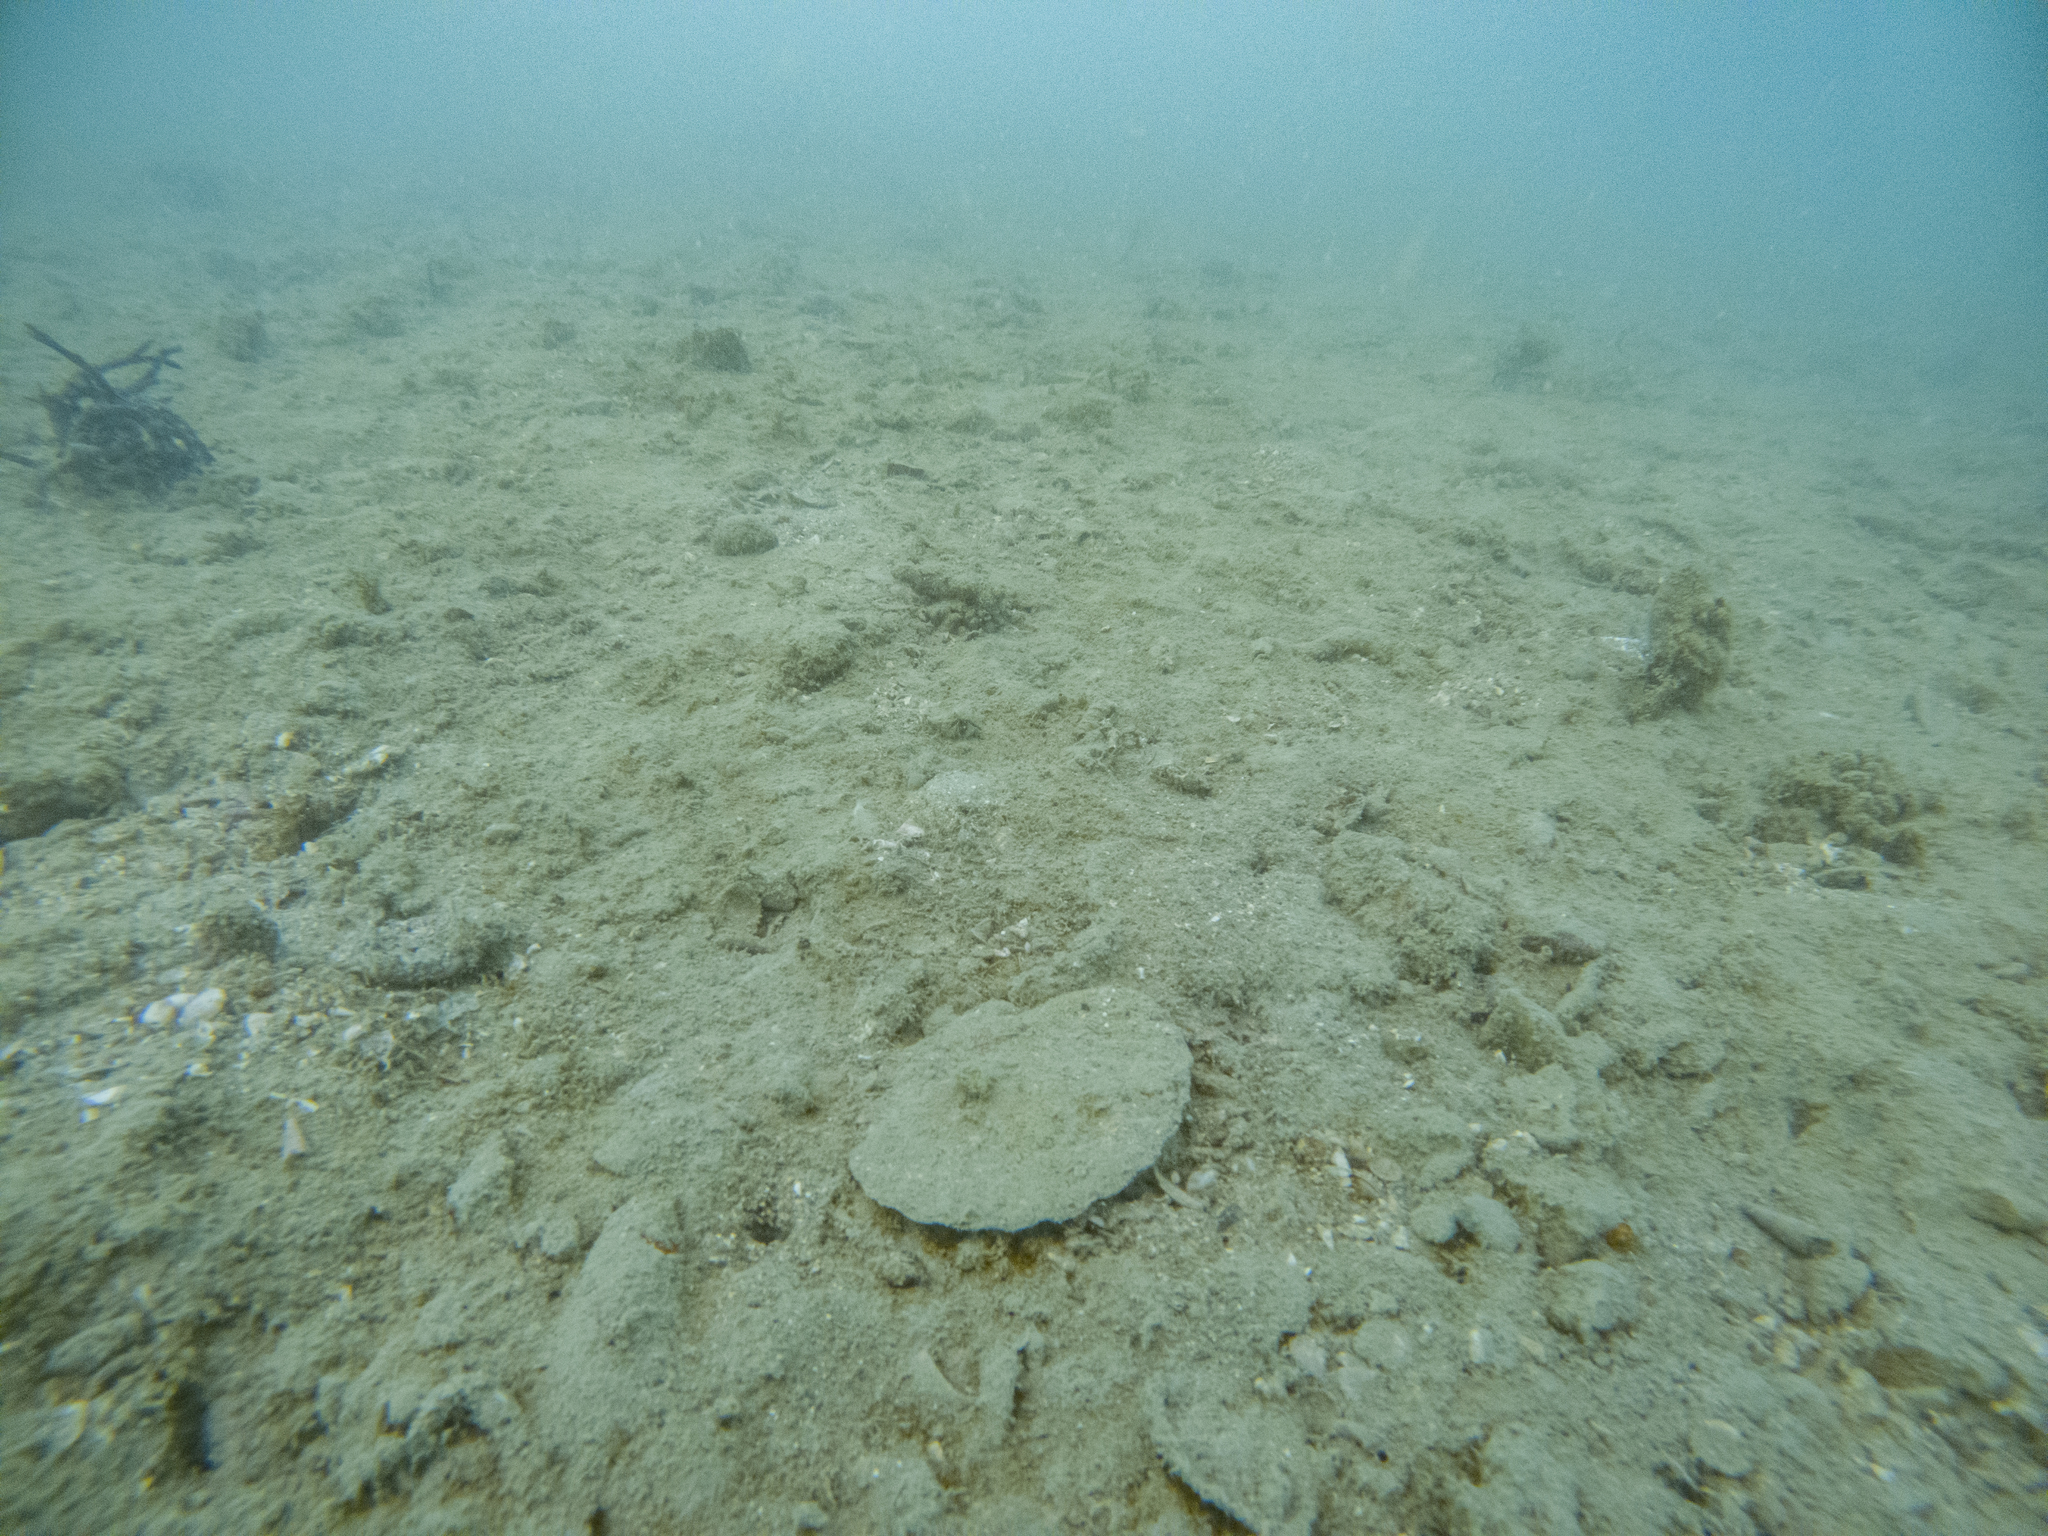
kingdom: Animalia
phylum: Mollusca
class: Bivalvia
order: Pectinida
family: Pectinidae
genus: Pecten
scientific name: Pecten novaezelandiae
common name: New zealand scallop
